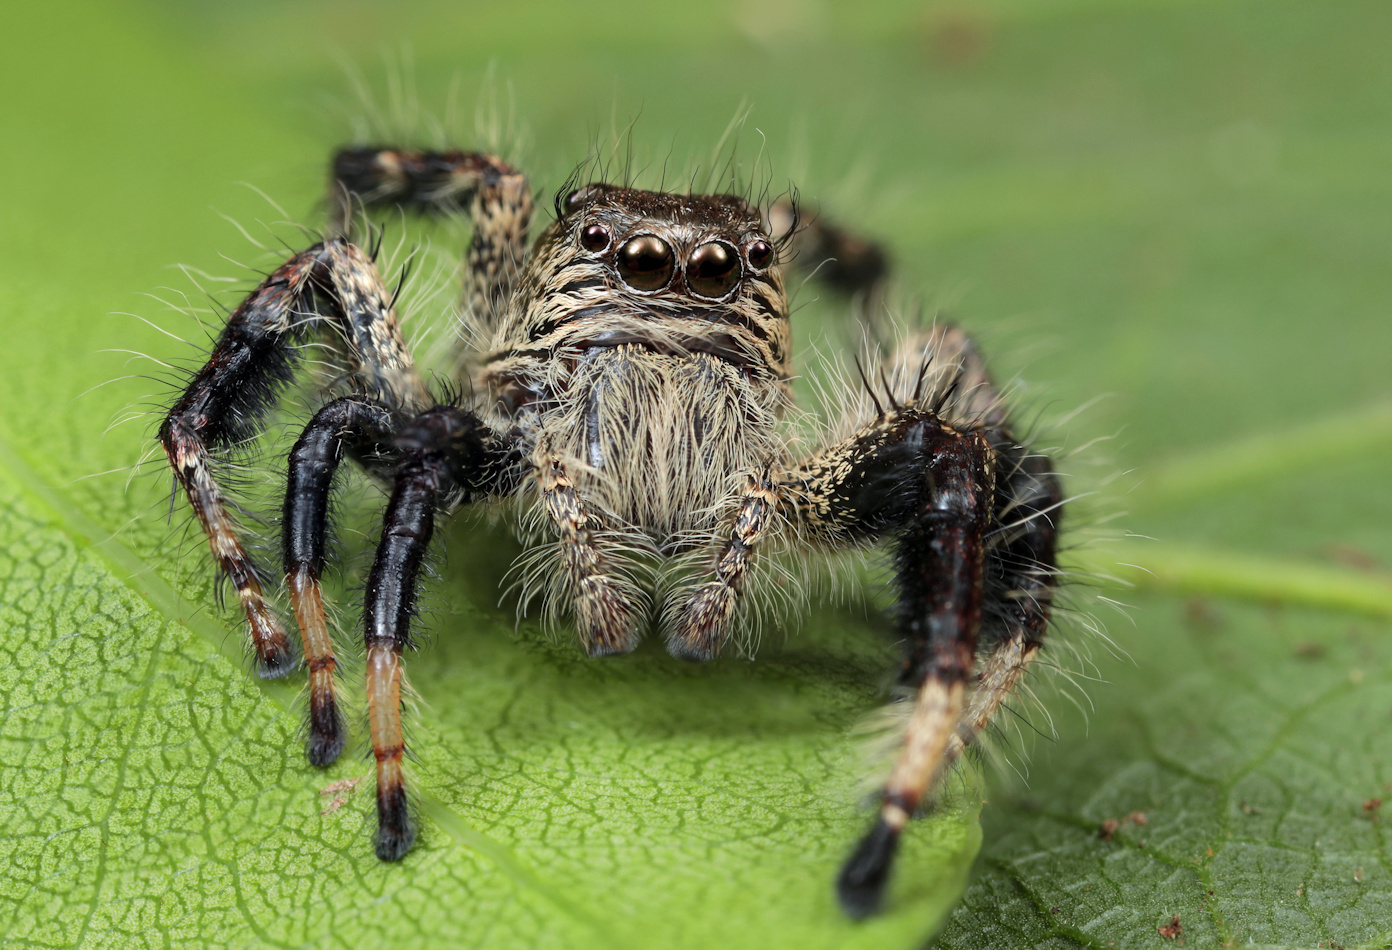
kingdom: Animalia
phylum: Arthropoda
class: Arachnida
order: Araneae
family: Salticidae
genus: Hyllus
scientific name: Hyllus treleaveni
